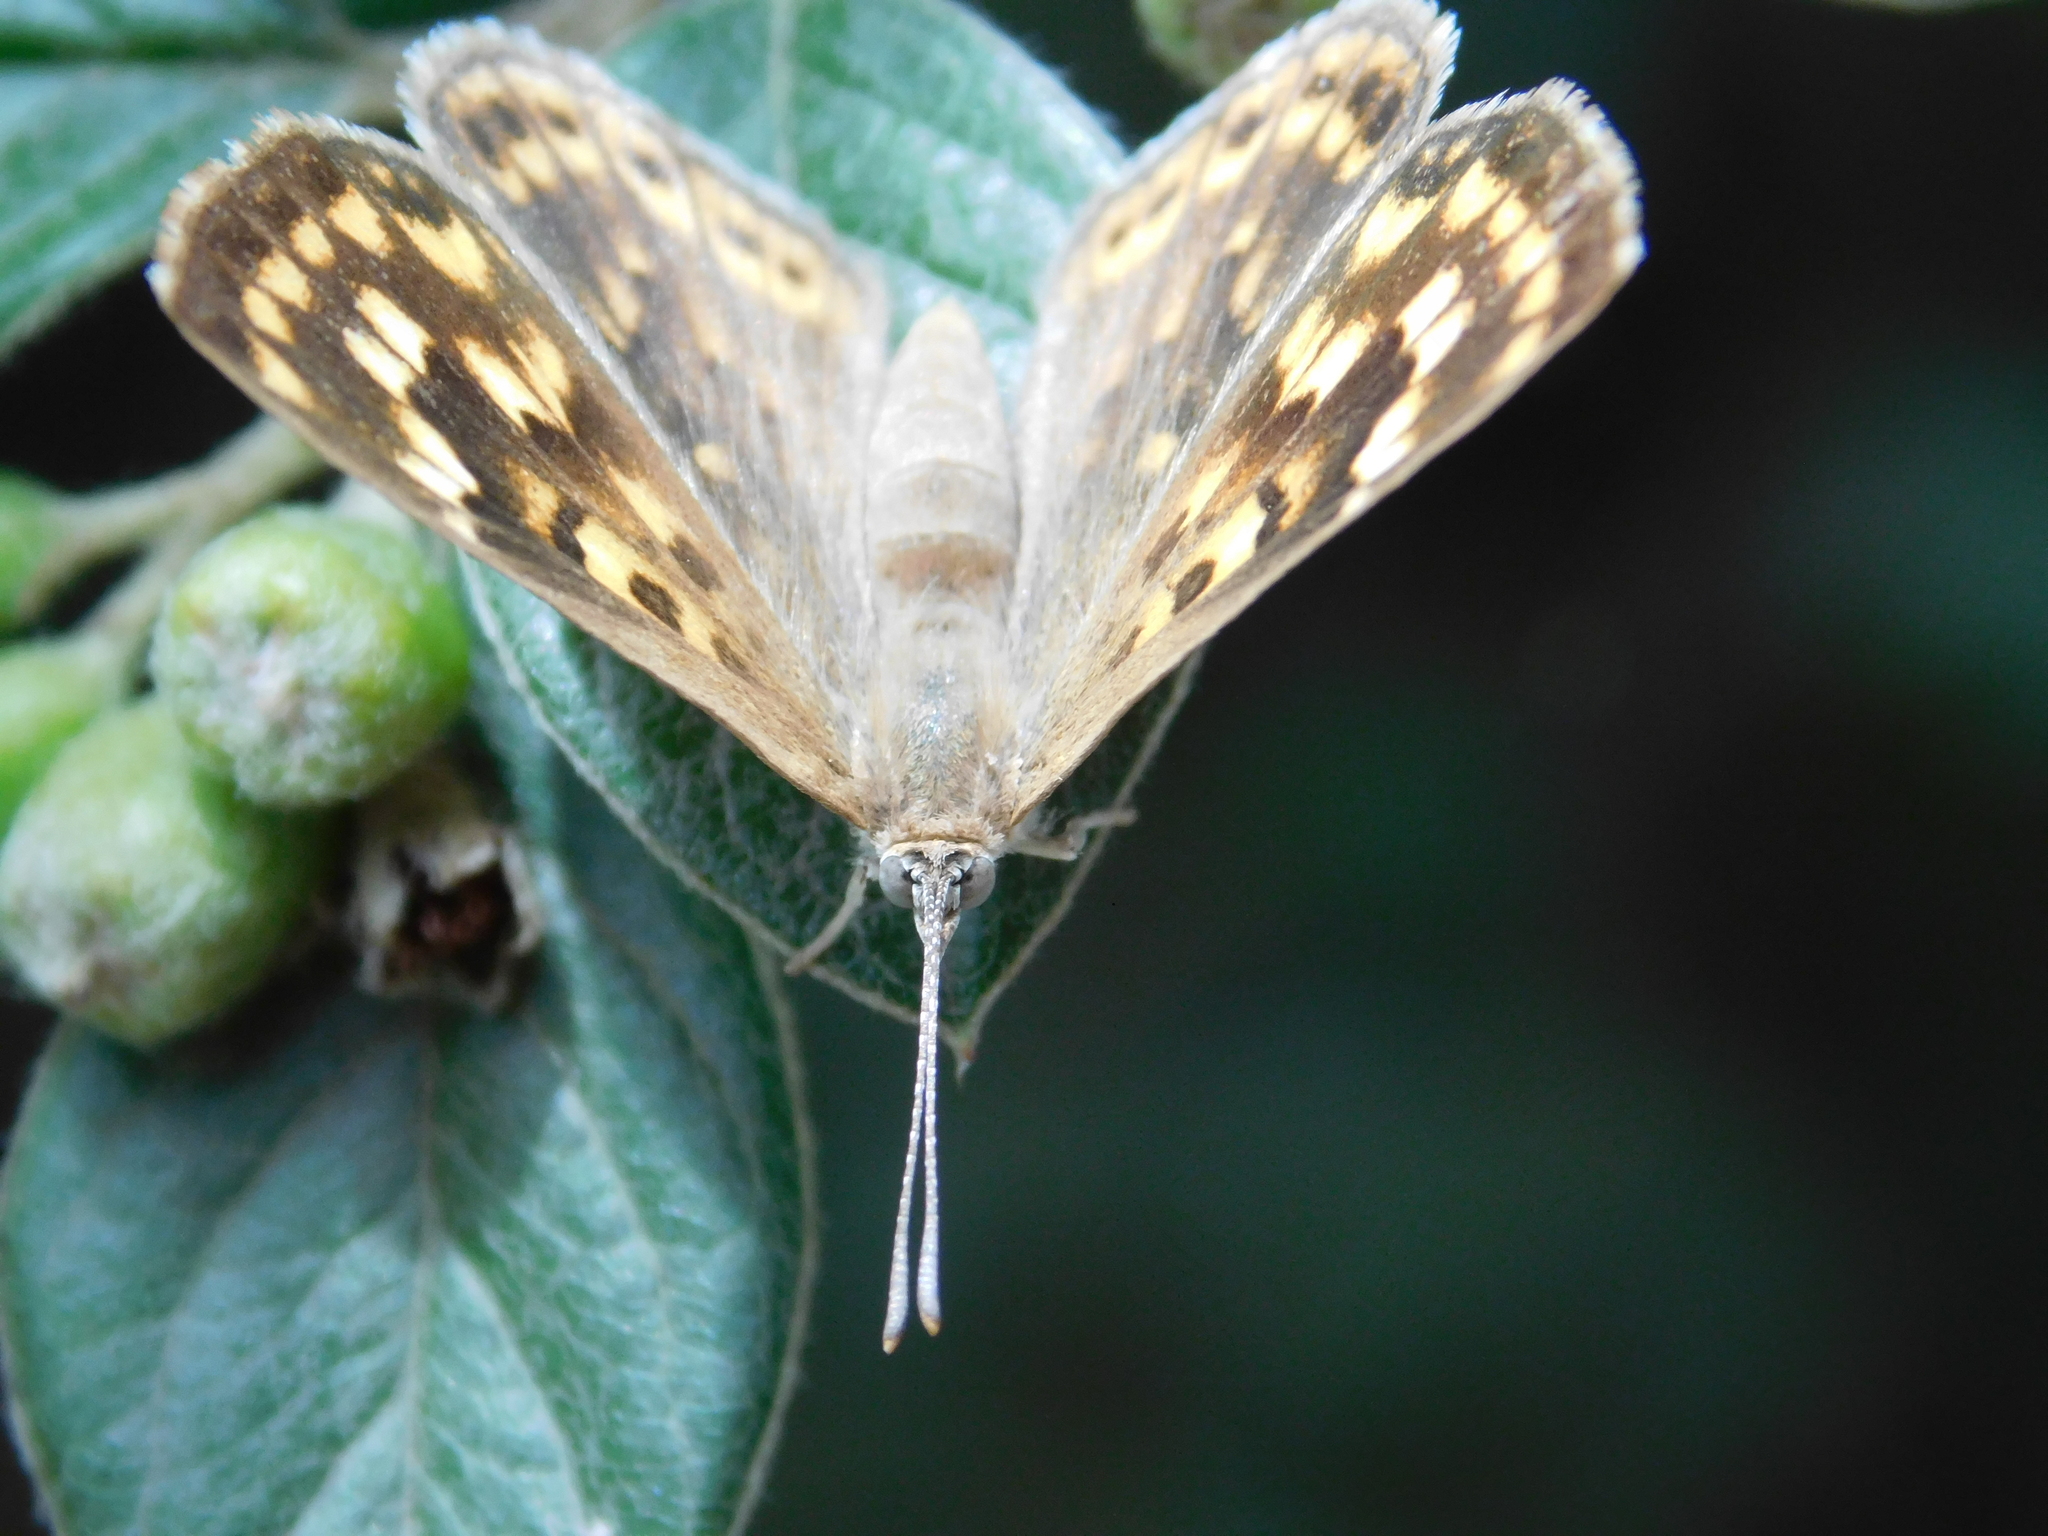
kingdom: Animalia
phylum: Arthropoda
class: Insecta
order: Lepidoptera
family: Lycaenidae
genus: Aricoris
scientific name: Aricoris indistincta
